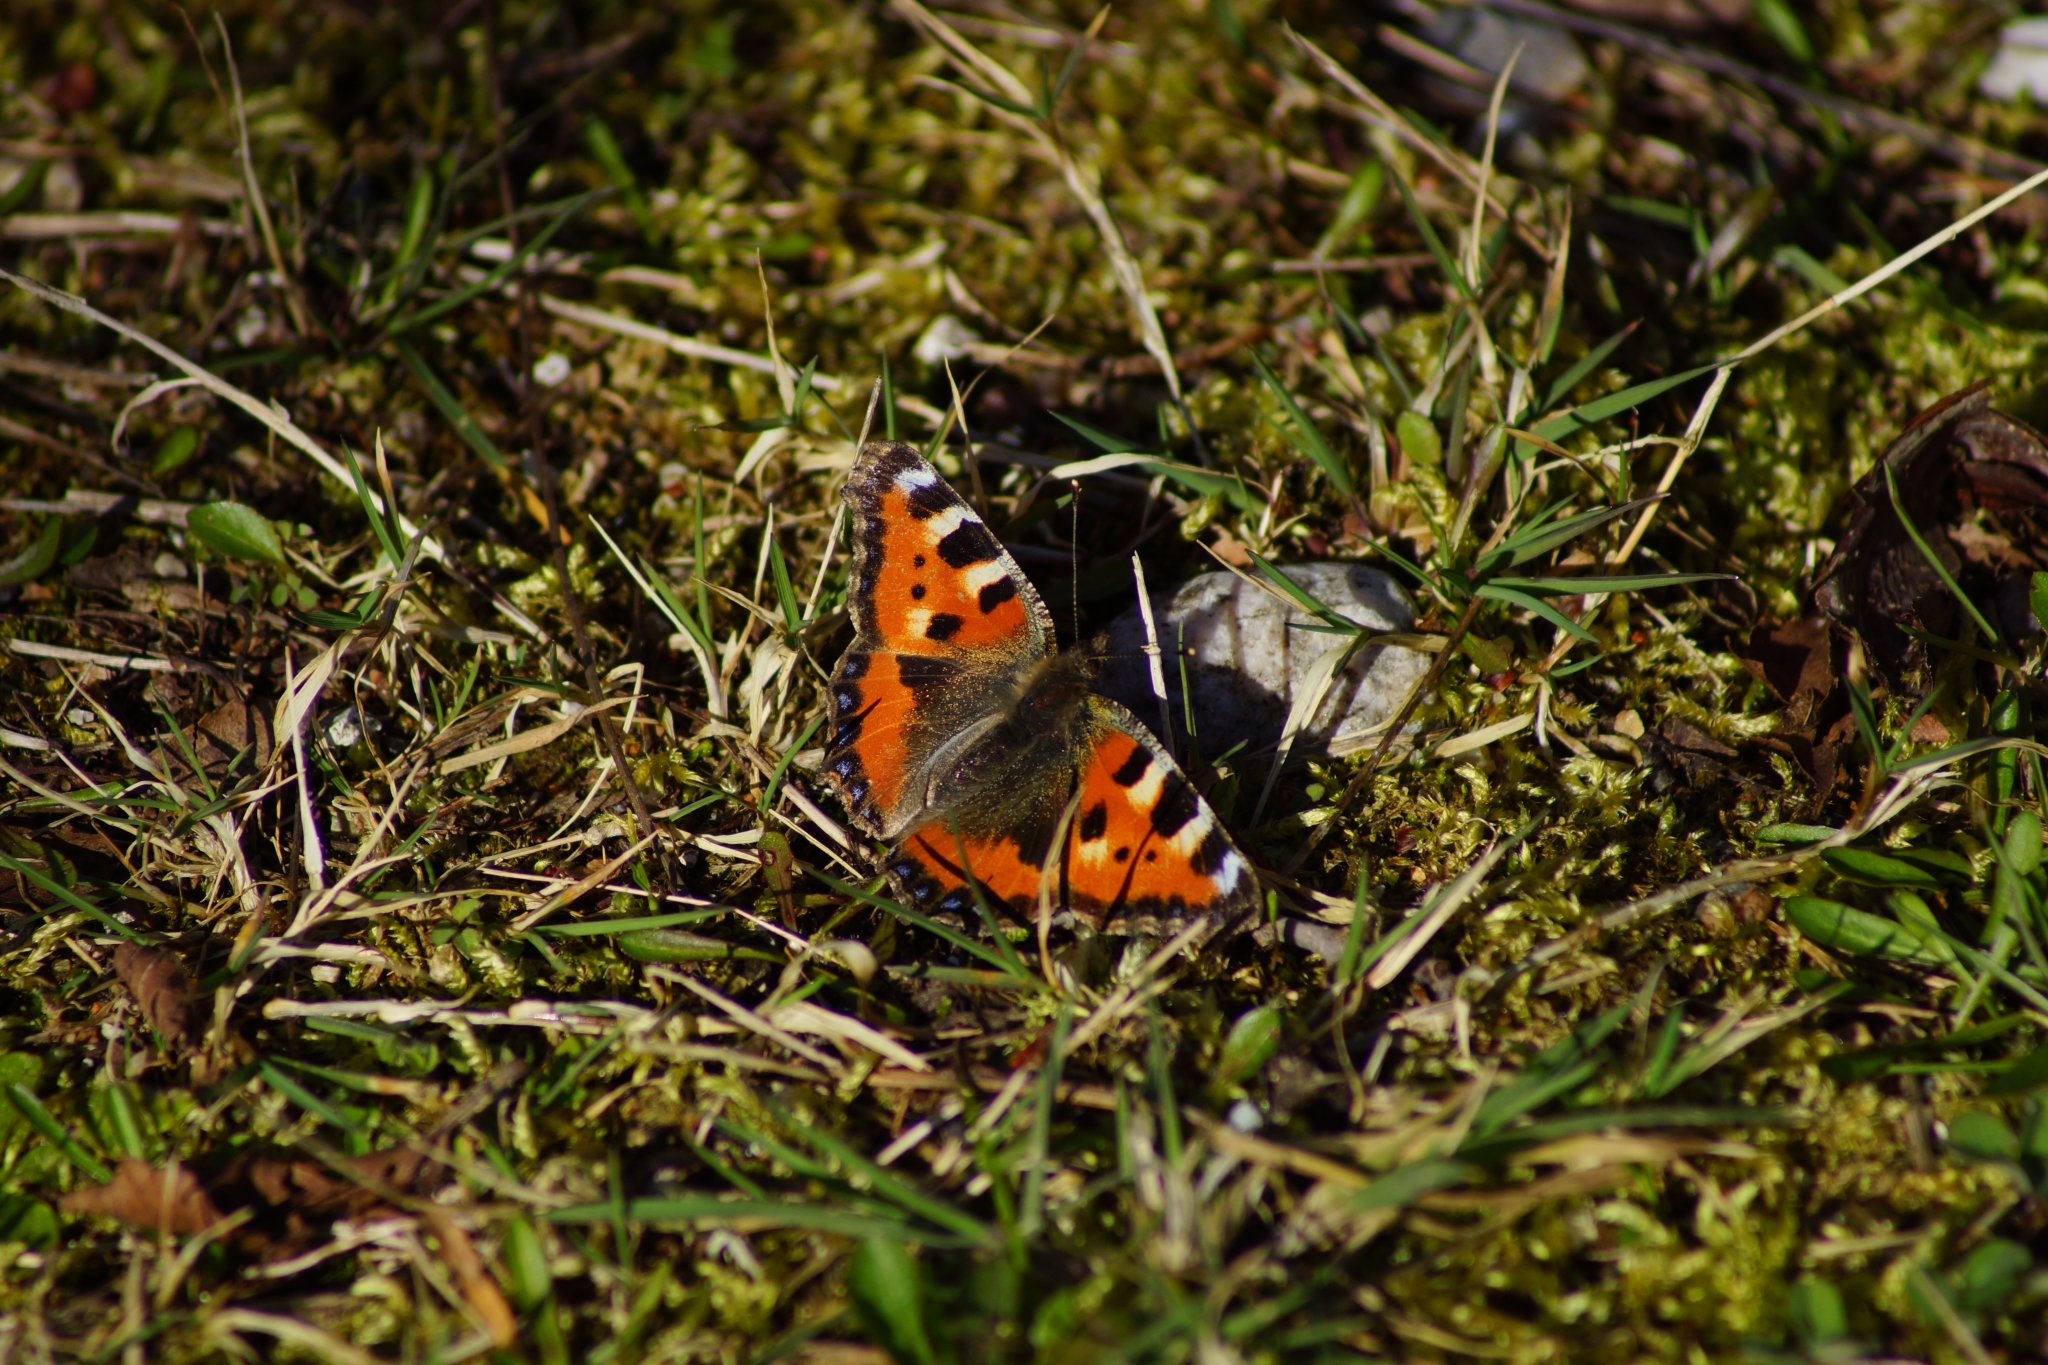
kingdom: Animalia
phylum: Arthropoda
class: Insecta
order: Lepidoptera
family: Nymphalidae
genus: Aglais
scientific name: Aglais urticae
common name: Small tortoiseshell
